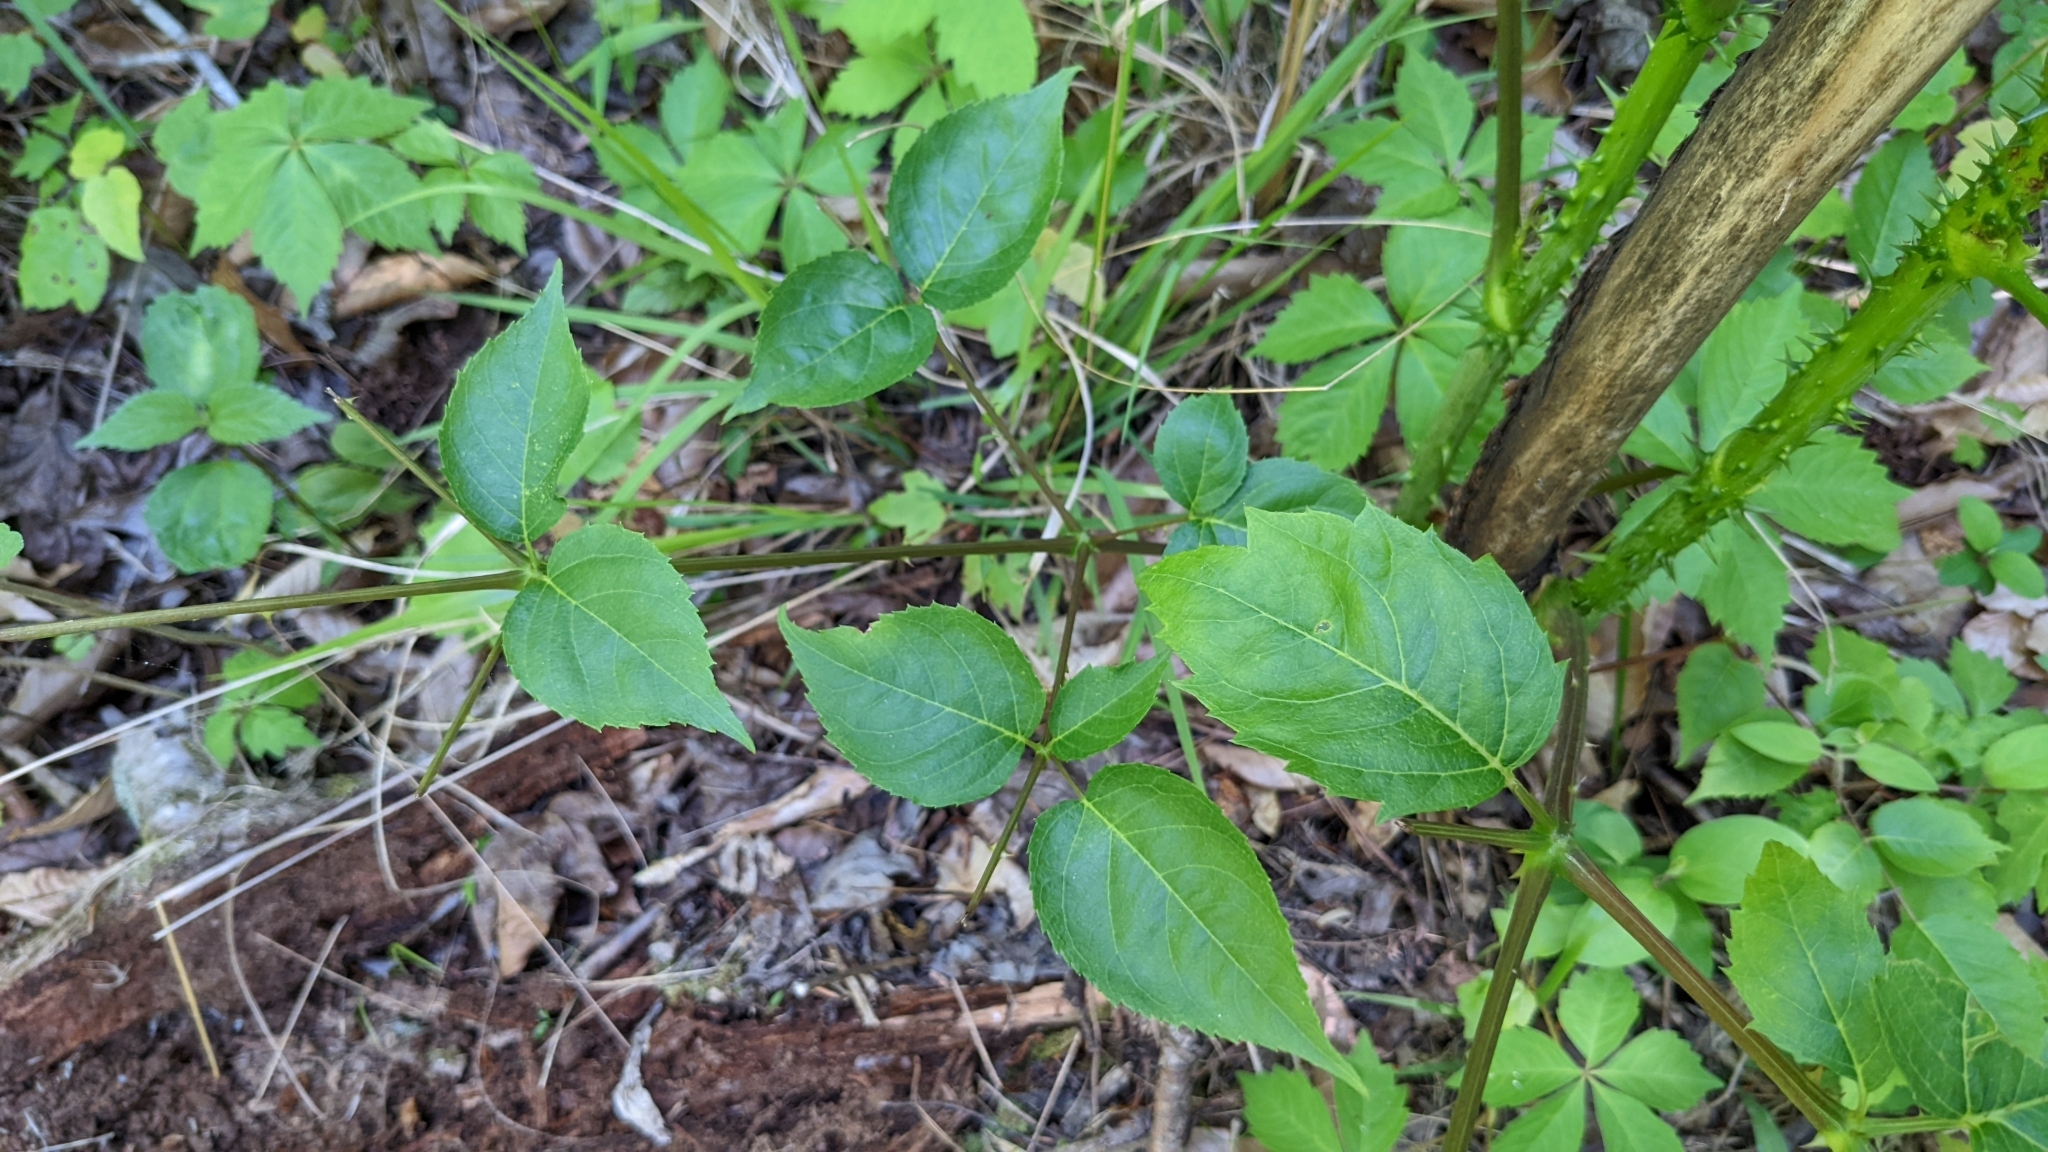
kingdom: Plantae
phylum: Tracheophyta
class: Magnoliopsida
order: Apiales
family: Araliaceae
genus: Aralia
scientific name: Aralia spinosa
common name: Hercules'-club
